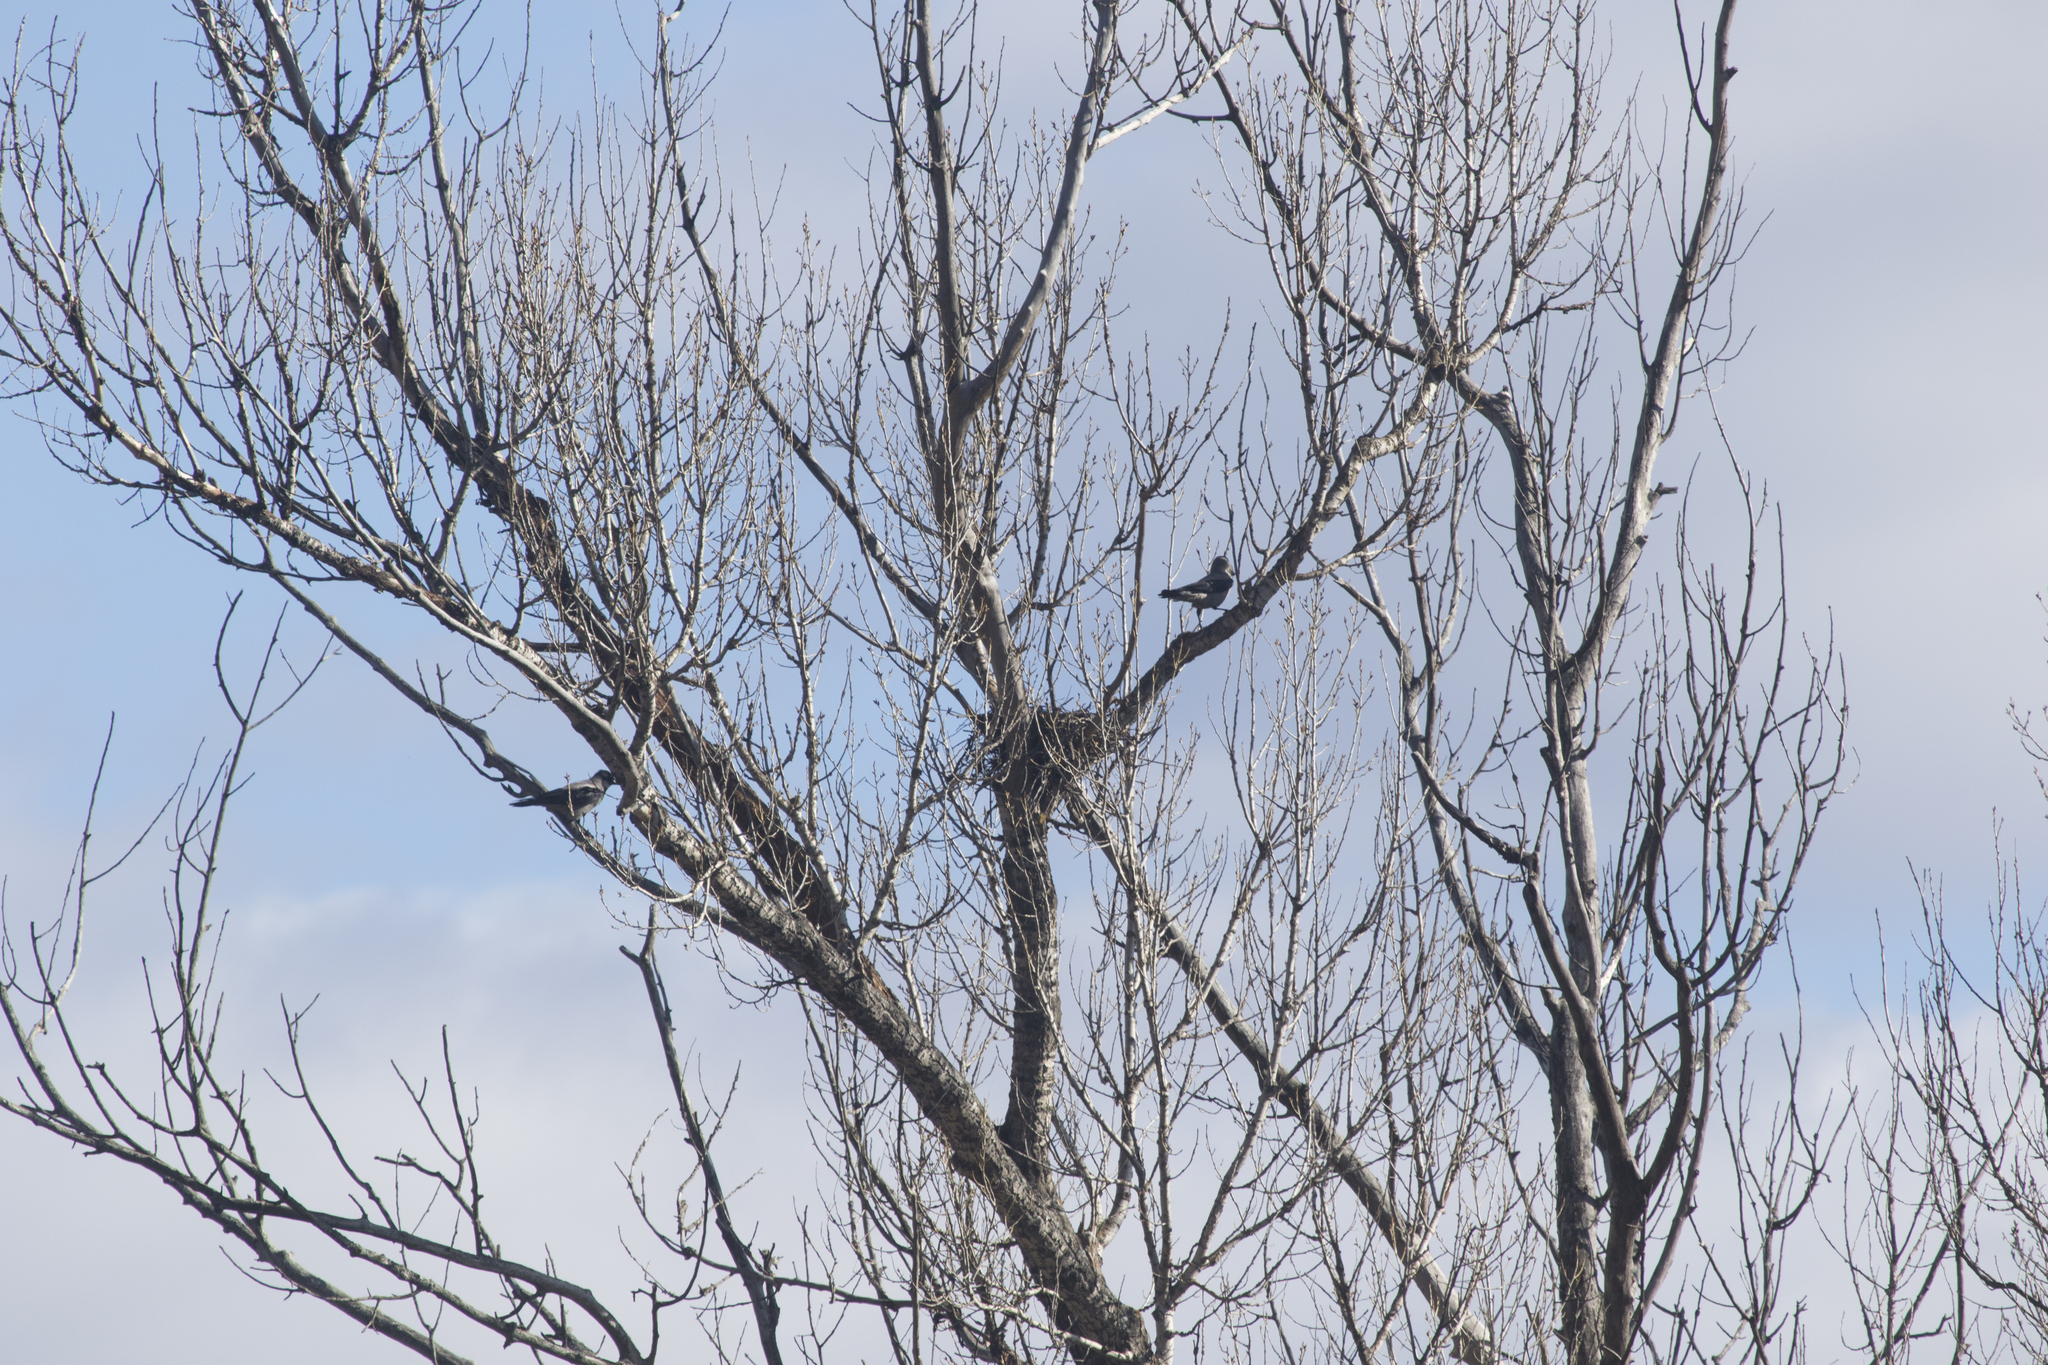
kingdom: Animalia
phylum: Chordata
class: Aves
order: Passeriformes
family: Corvidae
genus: Corvus
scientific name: Corvus cornix
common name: Hooded crow
